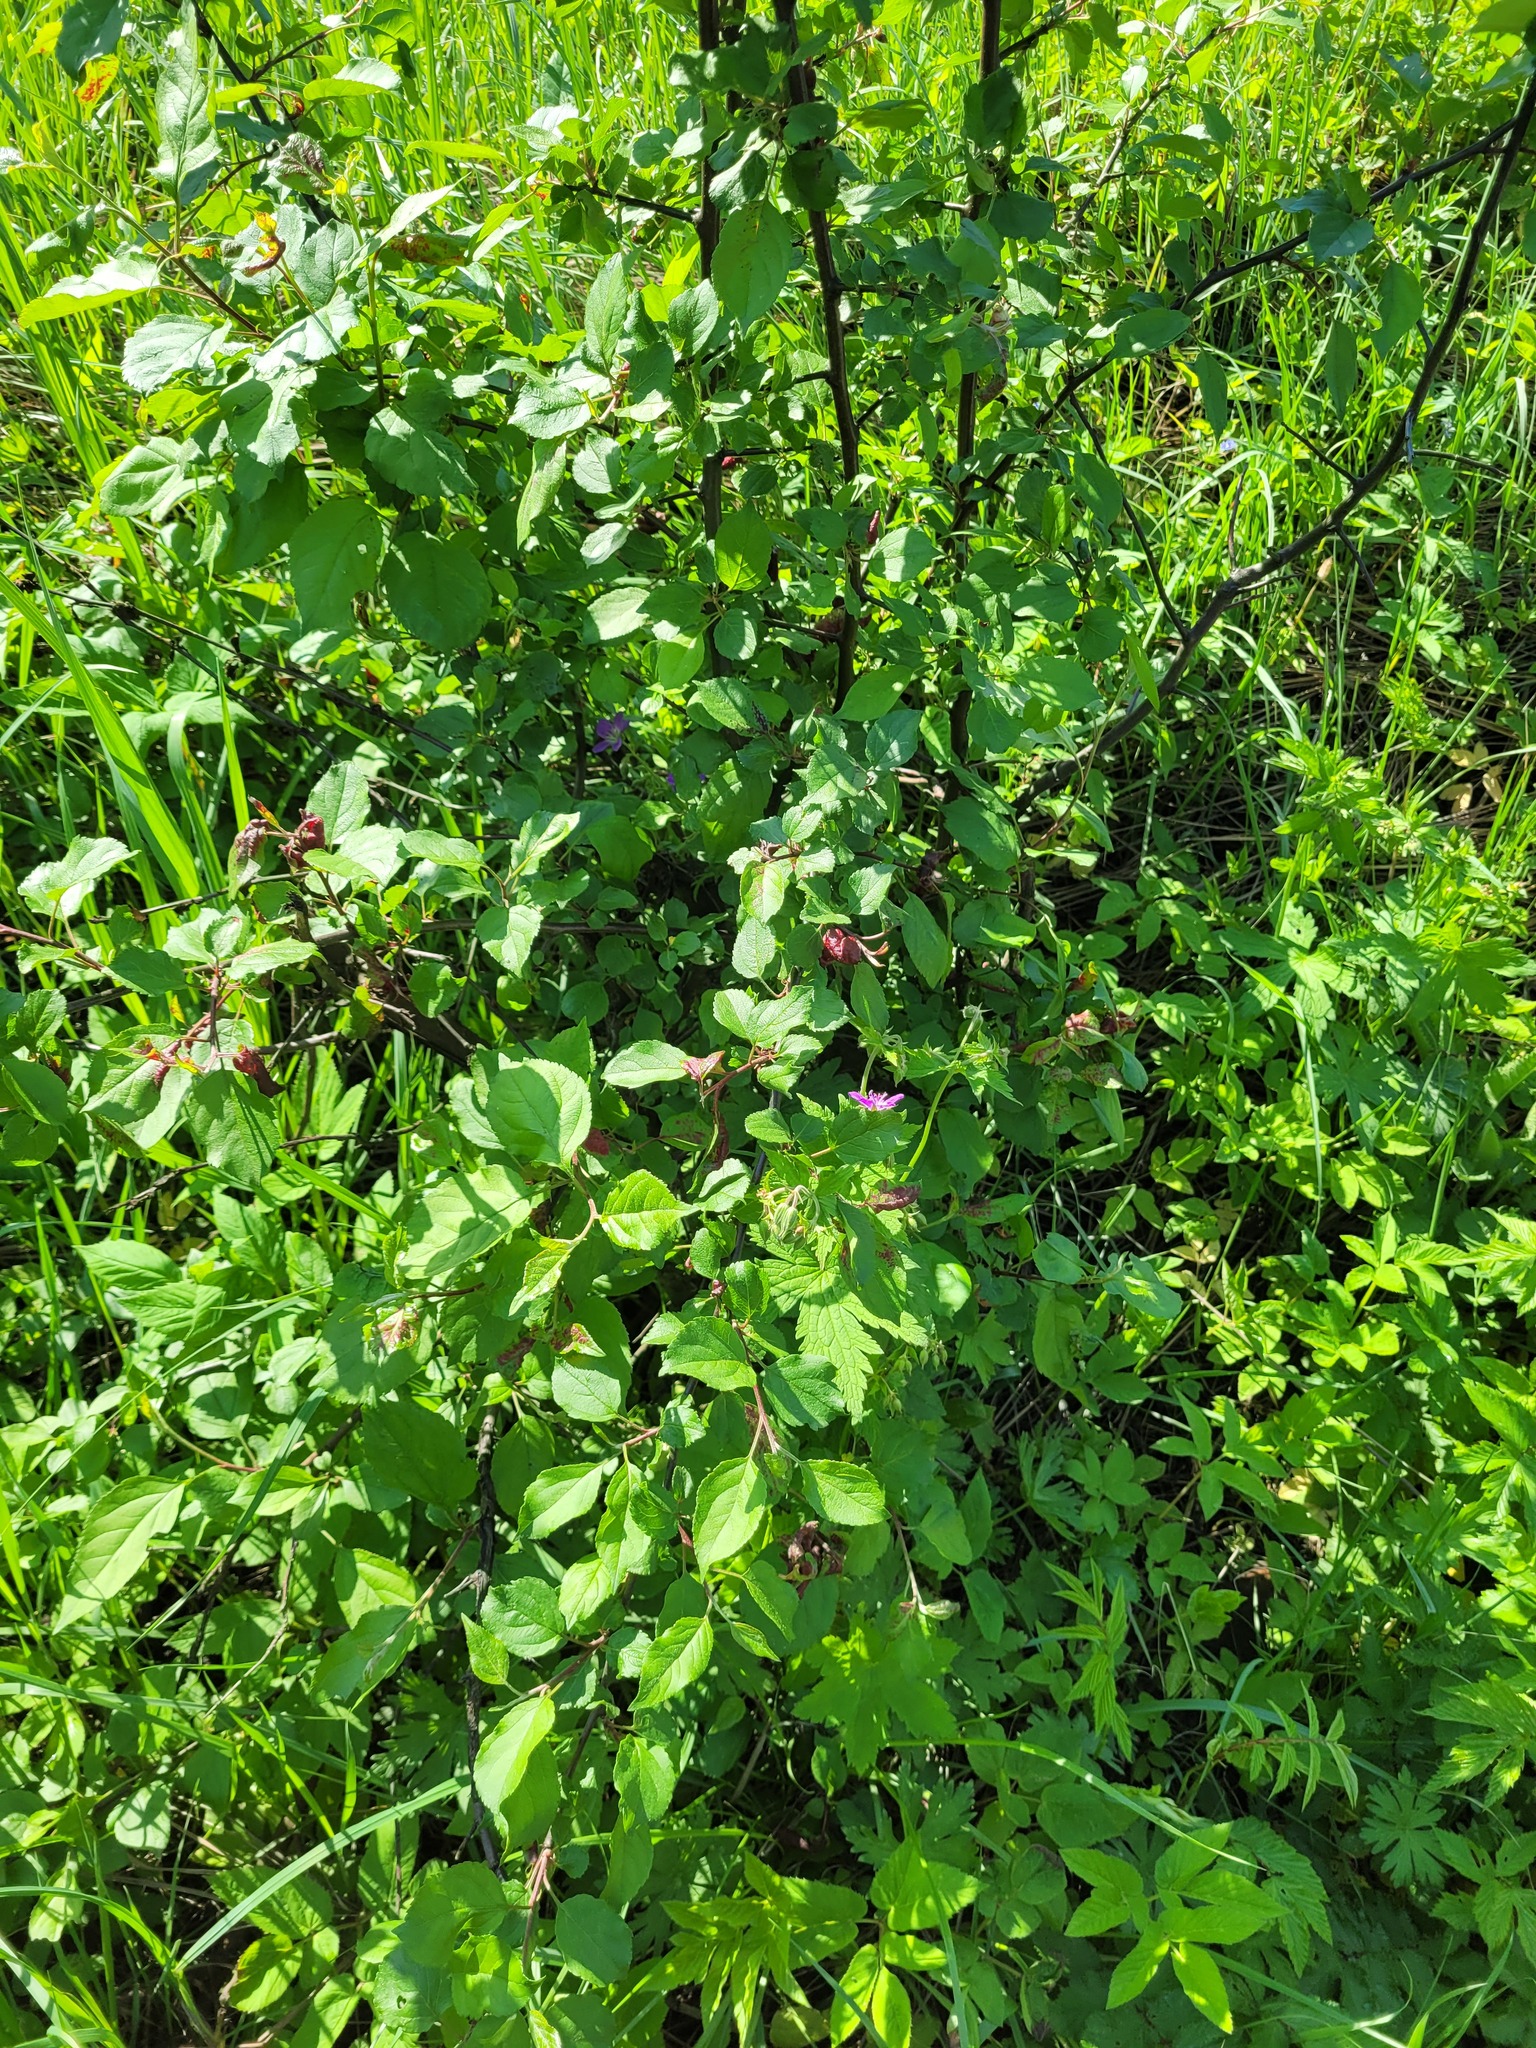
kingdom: Plantae
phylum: Tracheophyta
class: Magnoliopsida
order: Rosales
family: Rosaceae
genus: Malus
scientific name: Malus domestica
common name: Apple
